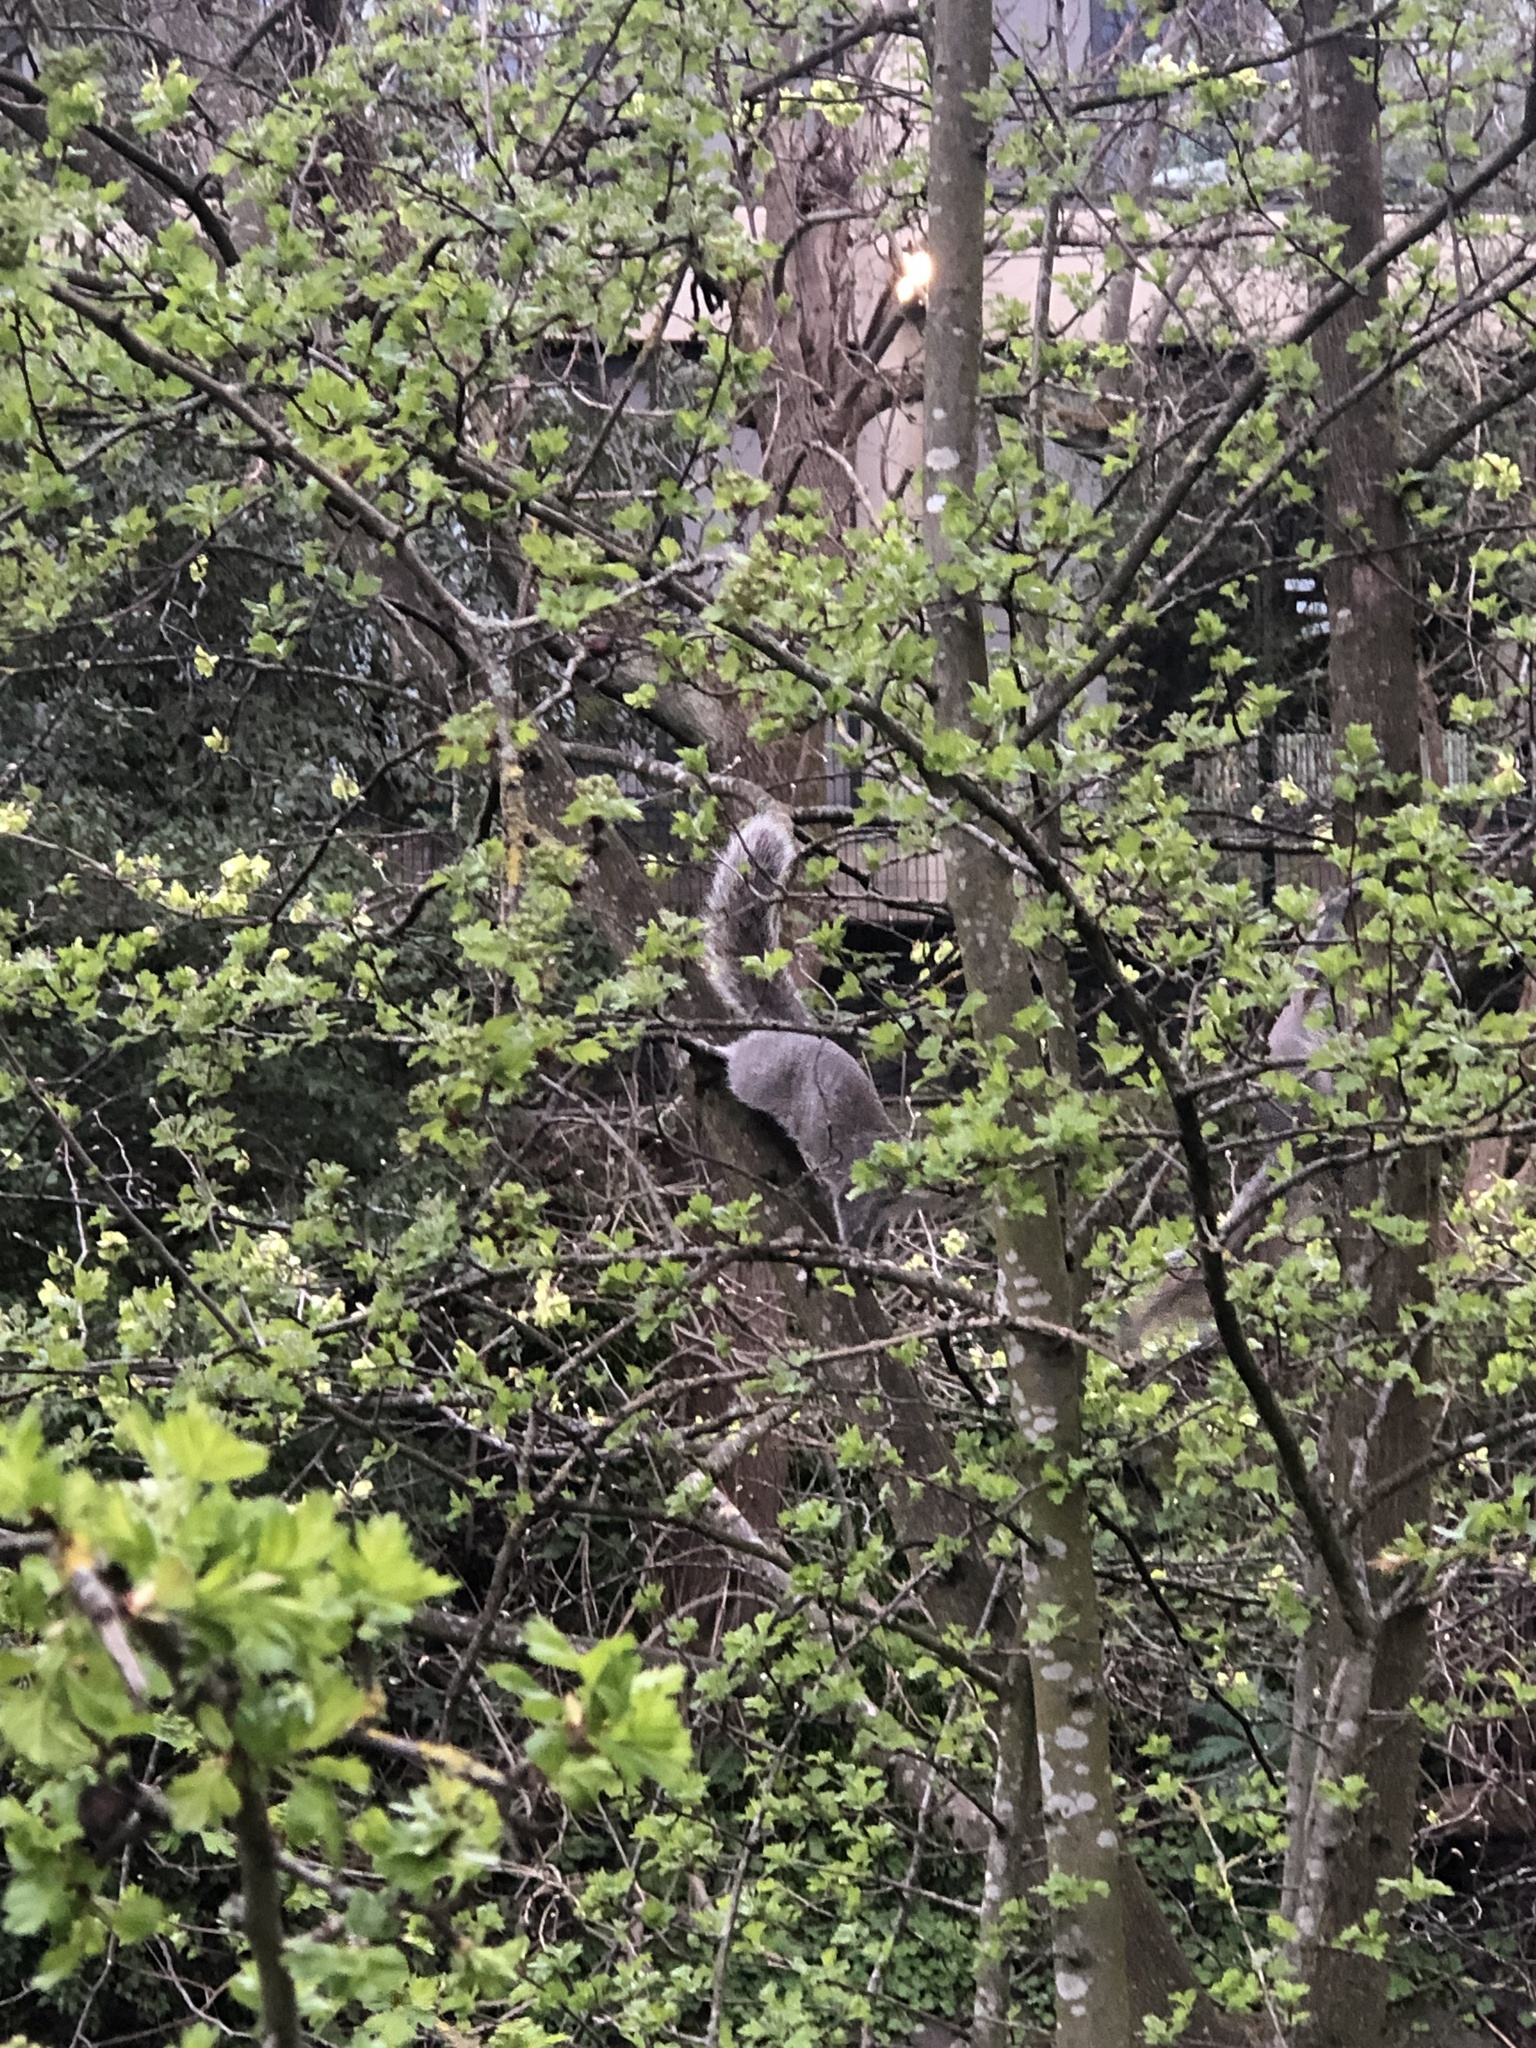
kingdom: Animalia
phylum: Chordata
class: Mammalia
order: Rodentia
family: Sciuridae
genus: Sciurus
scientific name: Sciurus carolinensis
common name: Eastern gray squirrel
